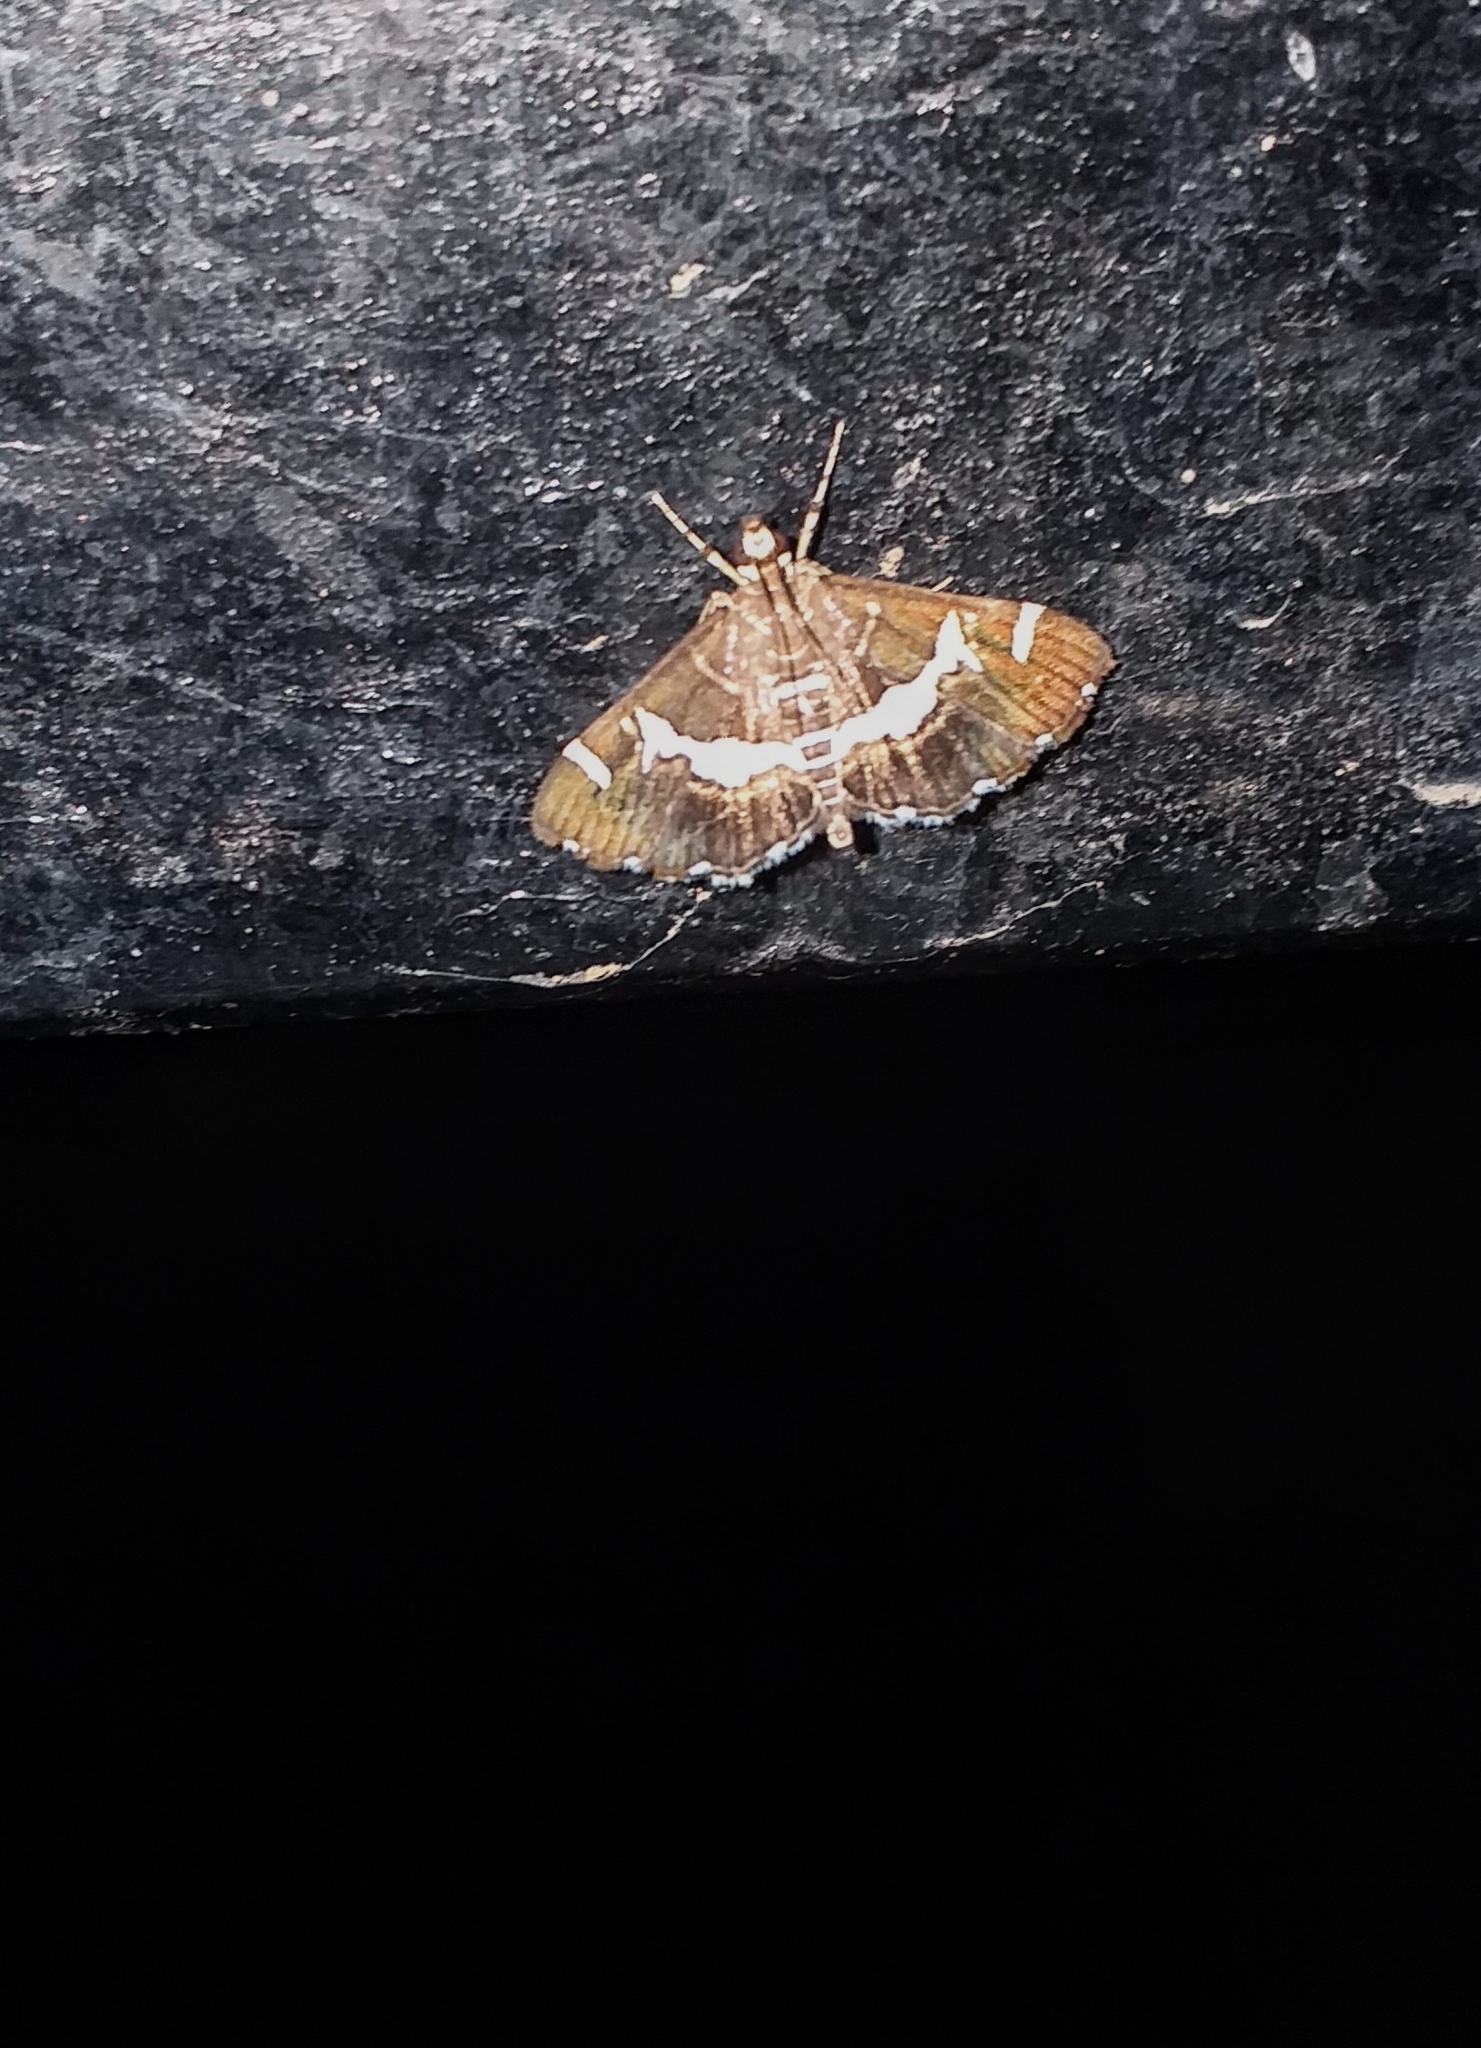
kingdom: Animalia
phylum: Arthropoda
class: Insecta
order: Lepidoptera
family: Crambidae
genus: Spoladea
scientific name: Spoladea recurvalis
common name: Beet webworm moth
